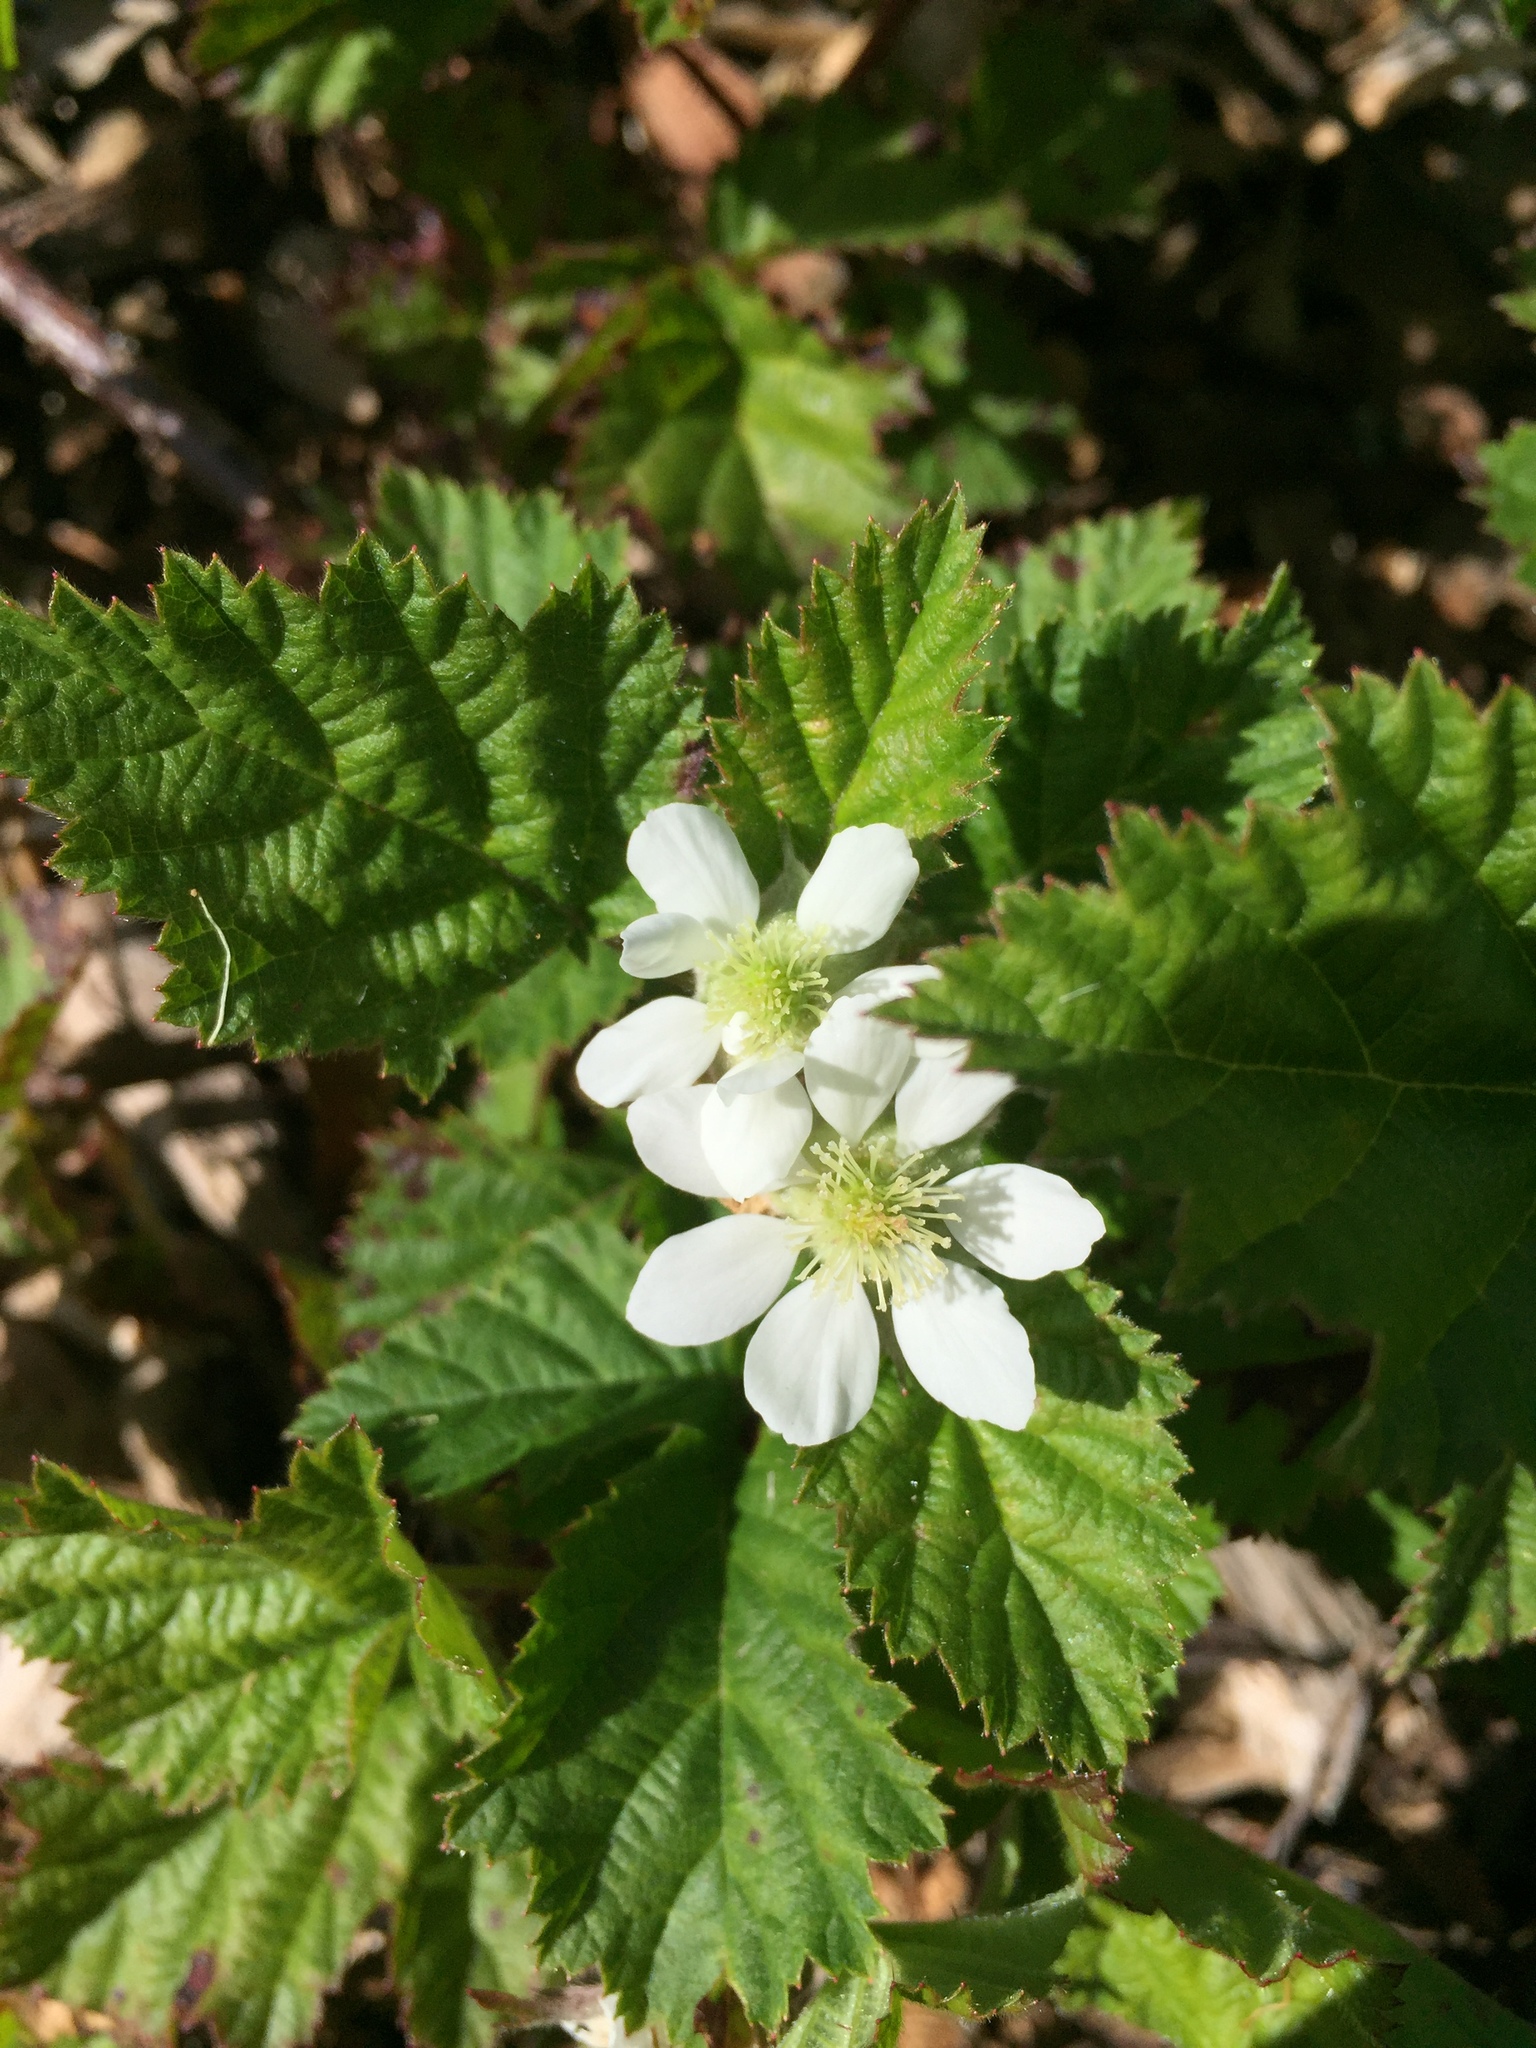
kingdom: Plantae
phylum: Tracheophyta
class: Magnoliopsida
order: Rosales
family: Rosaceae
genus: Rubus
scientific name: Rubus ursinus
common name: Pacific blackberry
